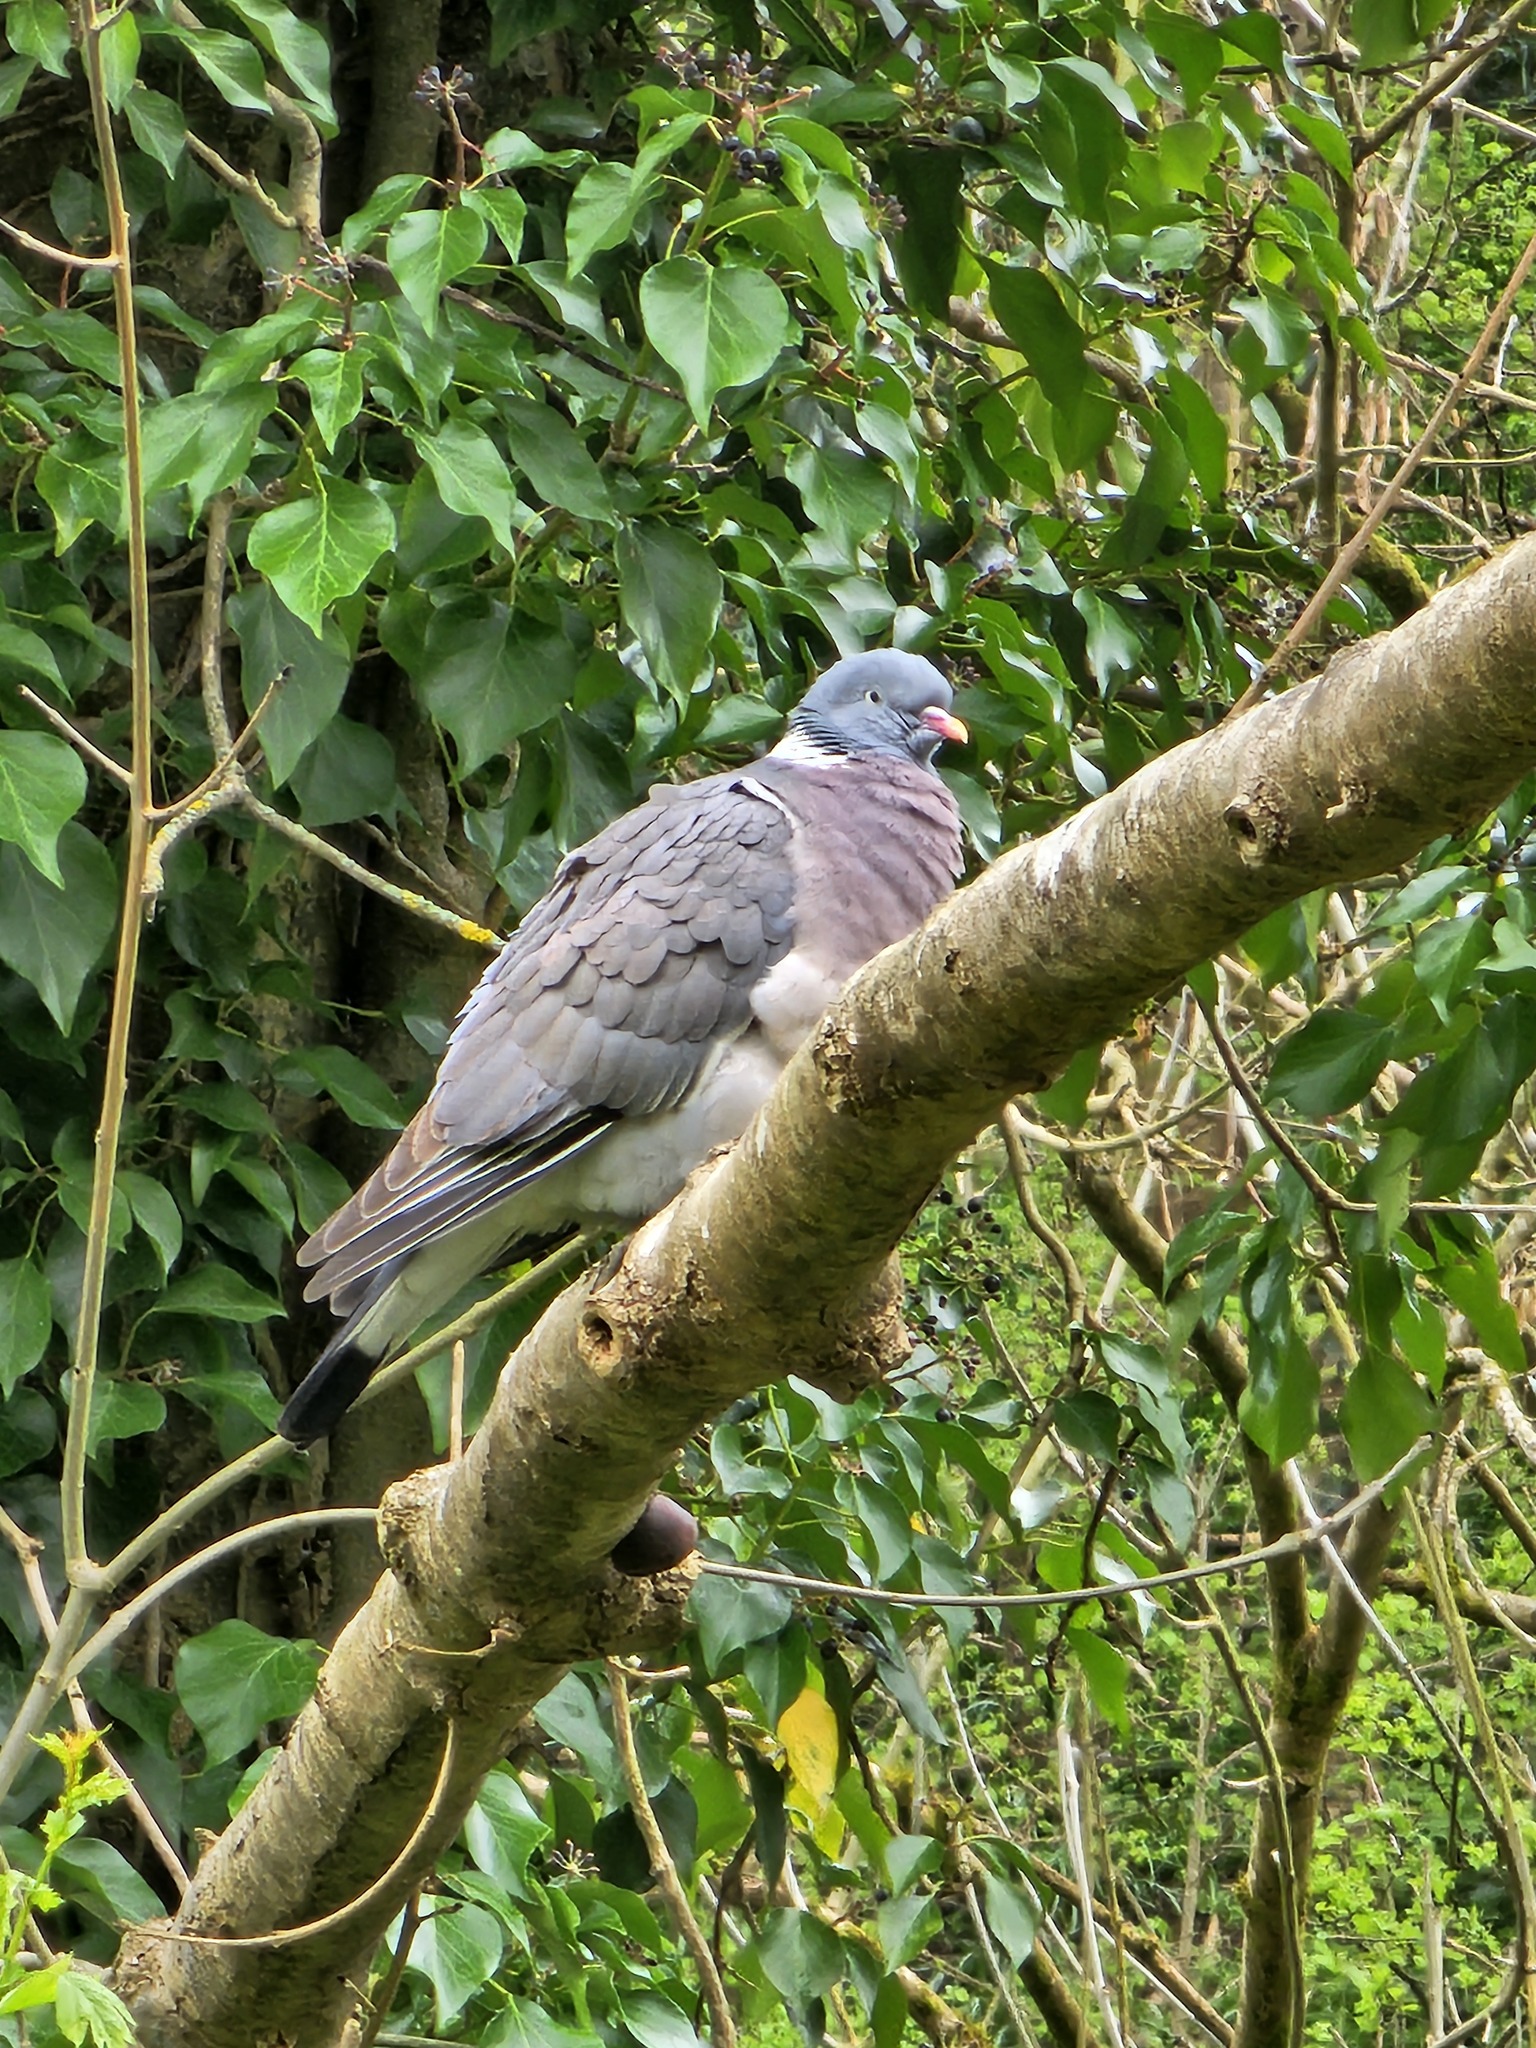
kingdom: Animalia
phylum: Chordata
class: Aves
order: Columbiformes
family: Columbidae
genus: Columba
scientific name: Columba palumbus
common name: Common wood pigeon
